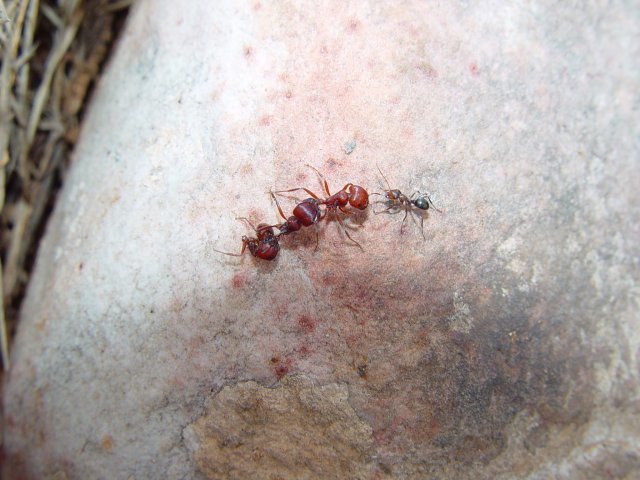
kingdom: Animalia
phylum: Arthropoda
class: Insecta
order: Hymenoptera
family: Formicidae
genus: Pogonomyrmex
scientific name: Pogonomyrmex barbatus
